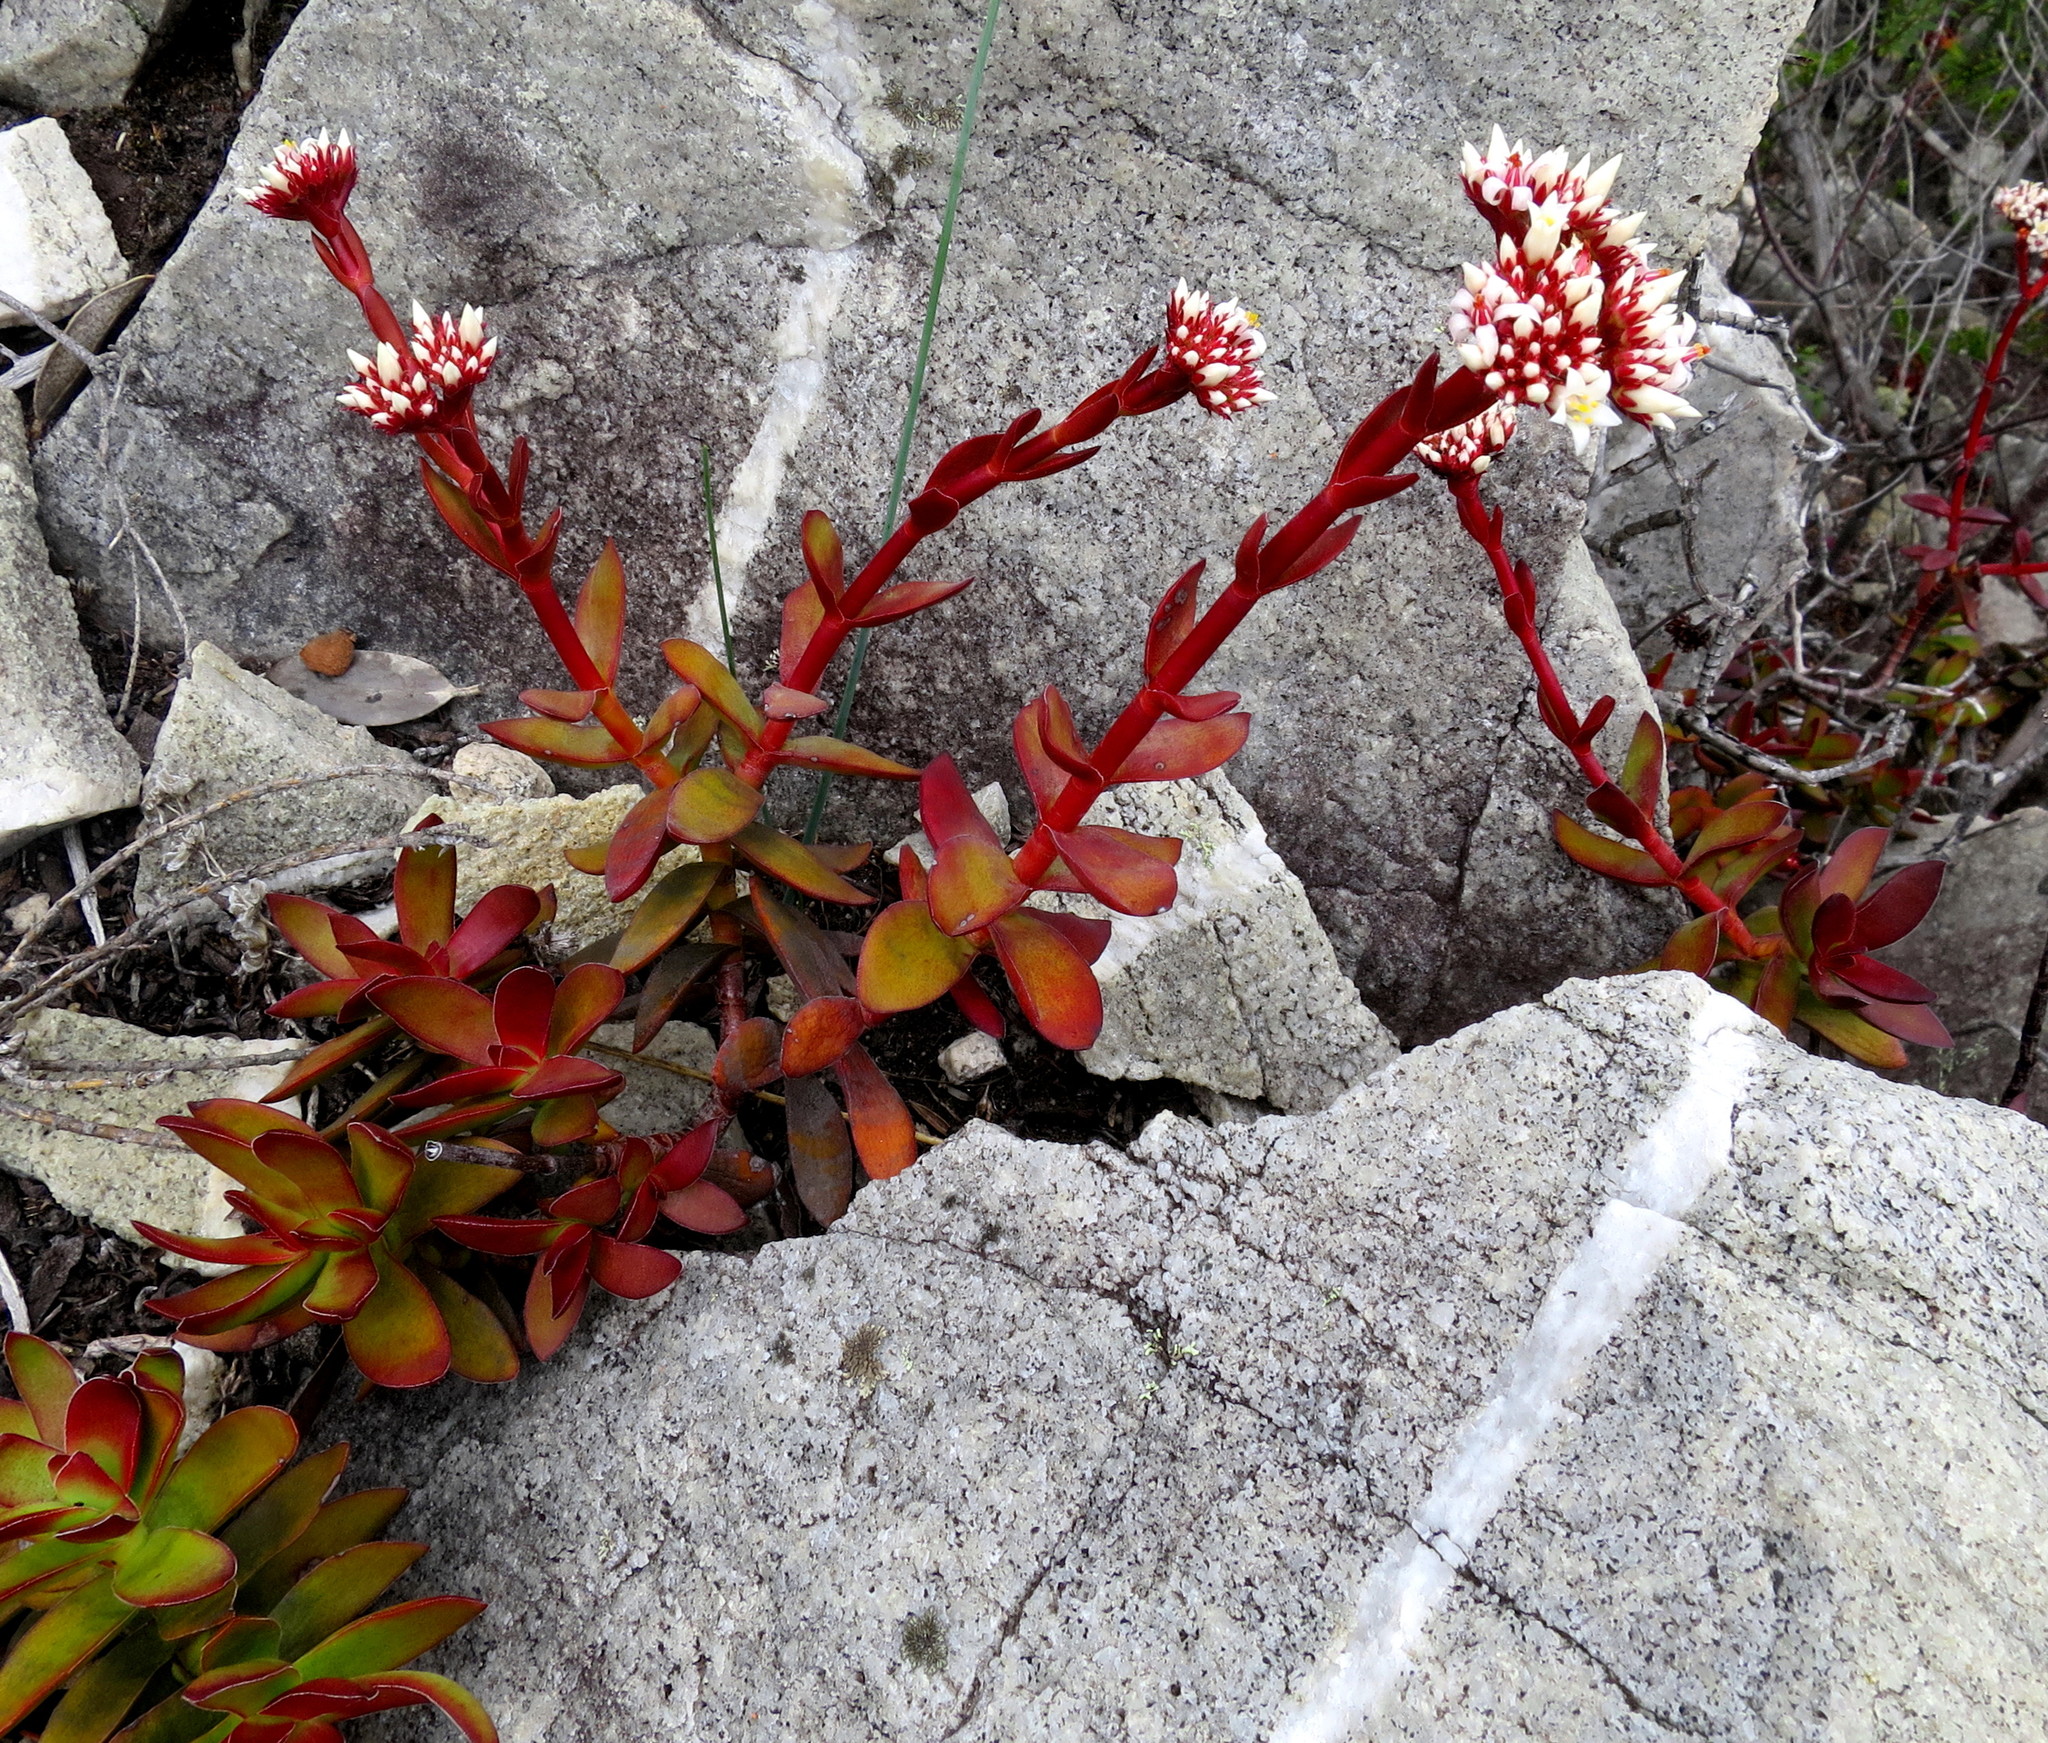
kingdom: Plantae
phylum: Tracheophyta
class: Magnoliopsida
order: Saxifragales
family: Crassulaceae
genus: Crassula
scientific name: Crassula rubricaulis
